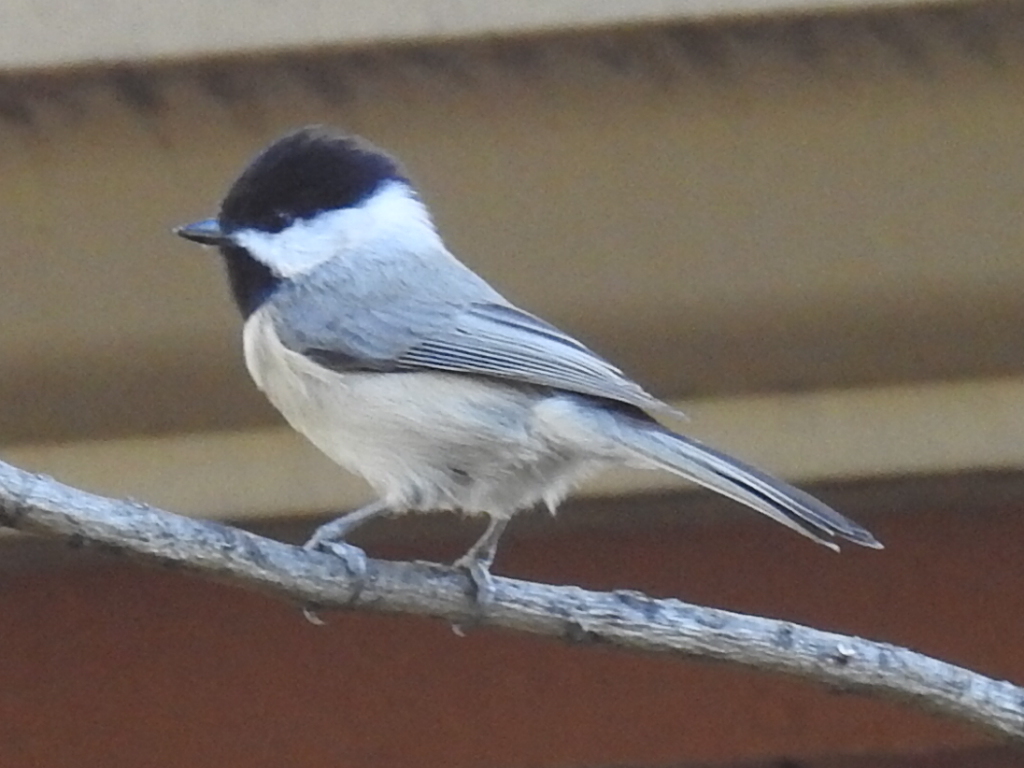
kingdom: Animalia
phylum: Chordata
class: Aves
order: Passeriformes
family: Paridae
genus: Poecile
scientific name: Poecile carolinensis
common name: Carolina chickadee
